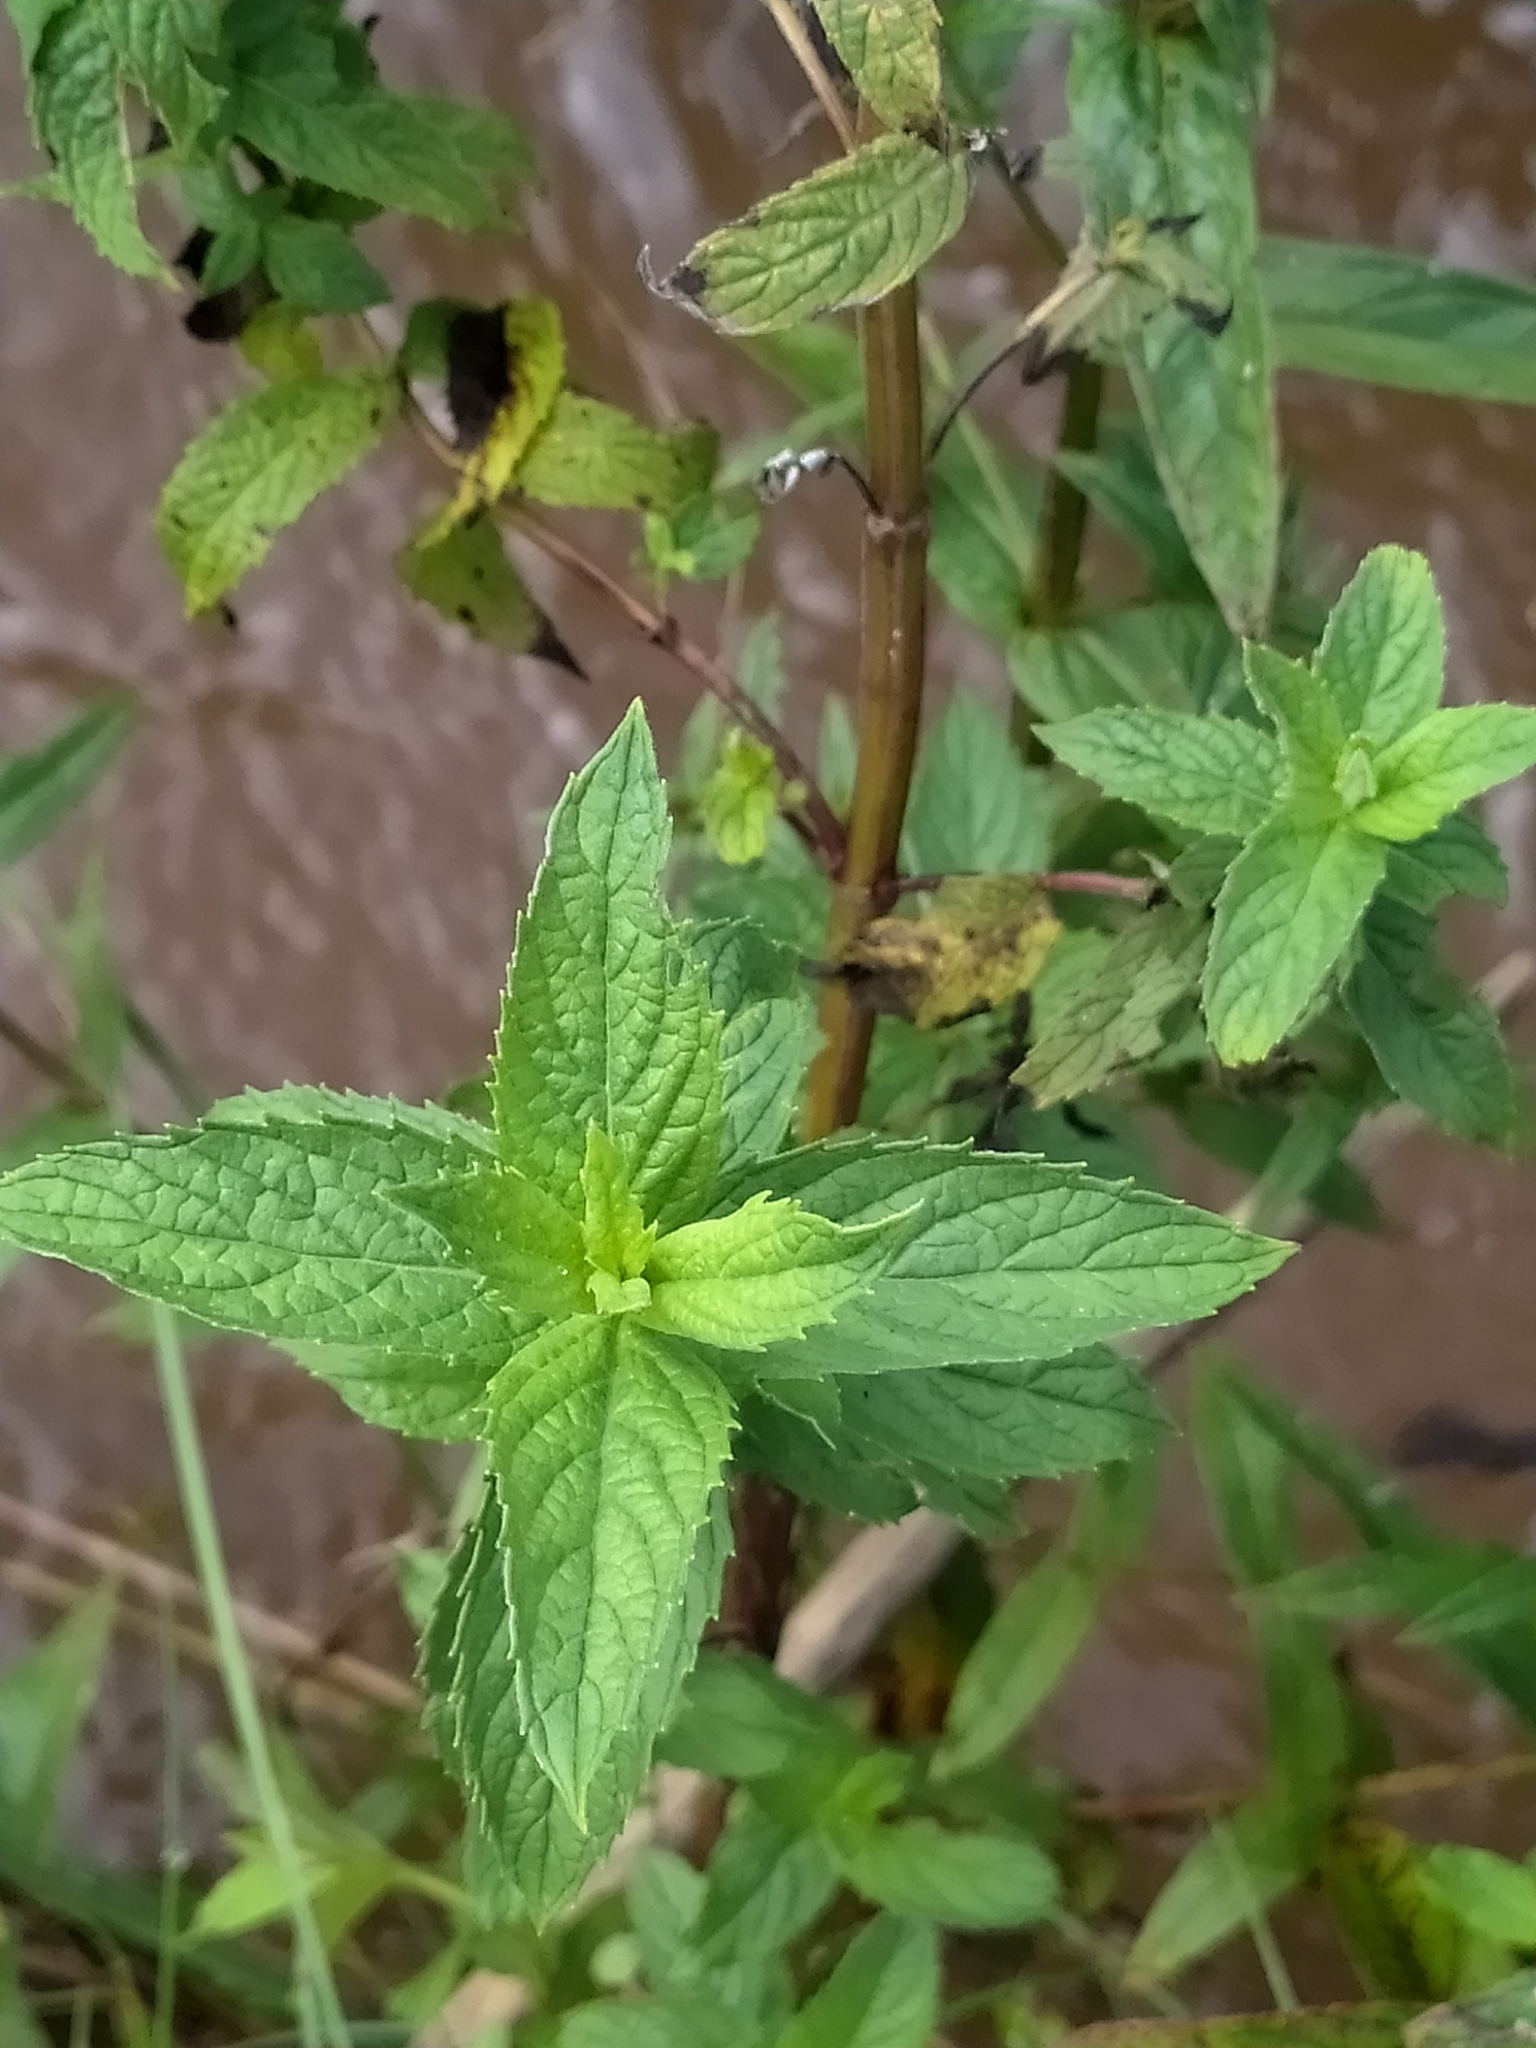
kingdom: Plantae
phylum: Tracheophyta
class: Magnoliopsida
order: Myrtales
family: Lythraceae
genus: Lythrum
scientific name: Lythrum salicaria
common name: Purple loosestrife
